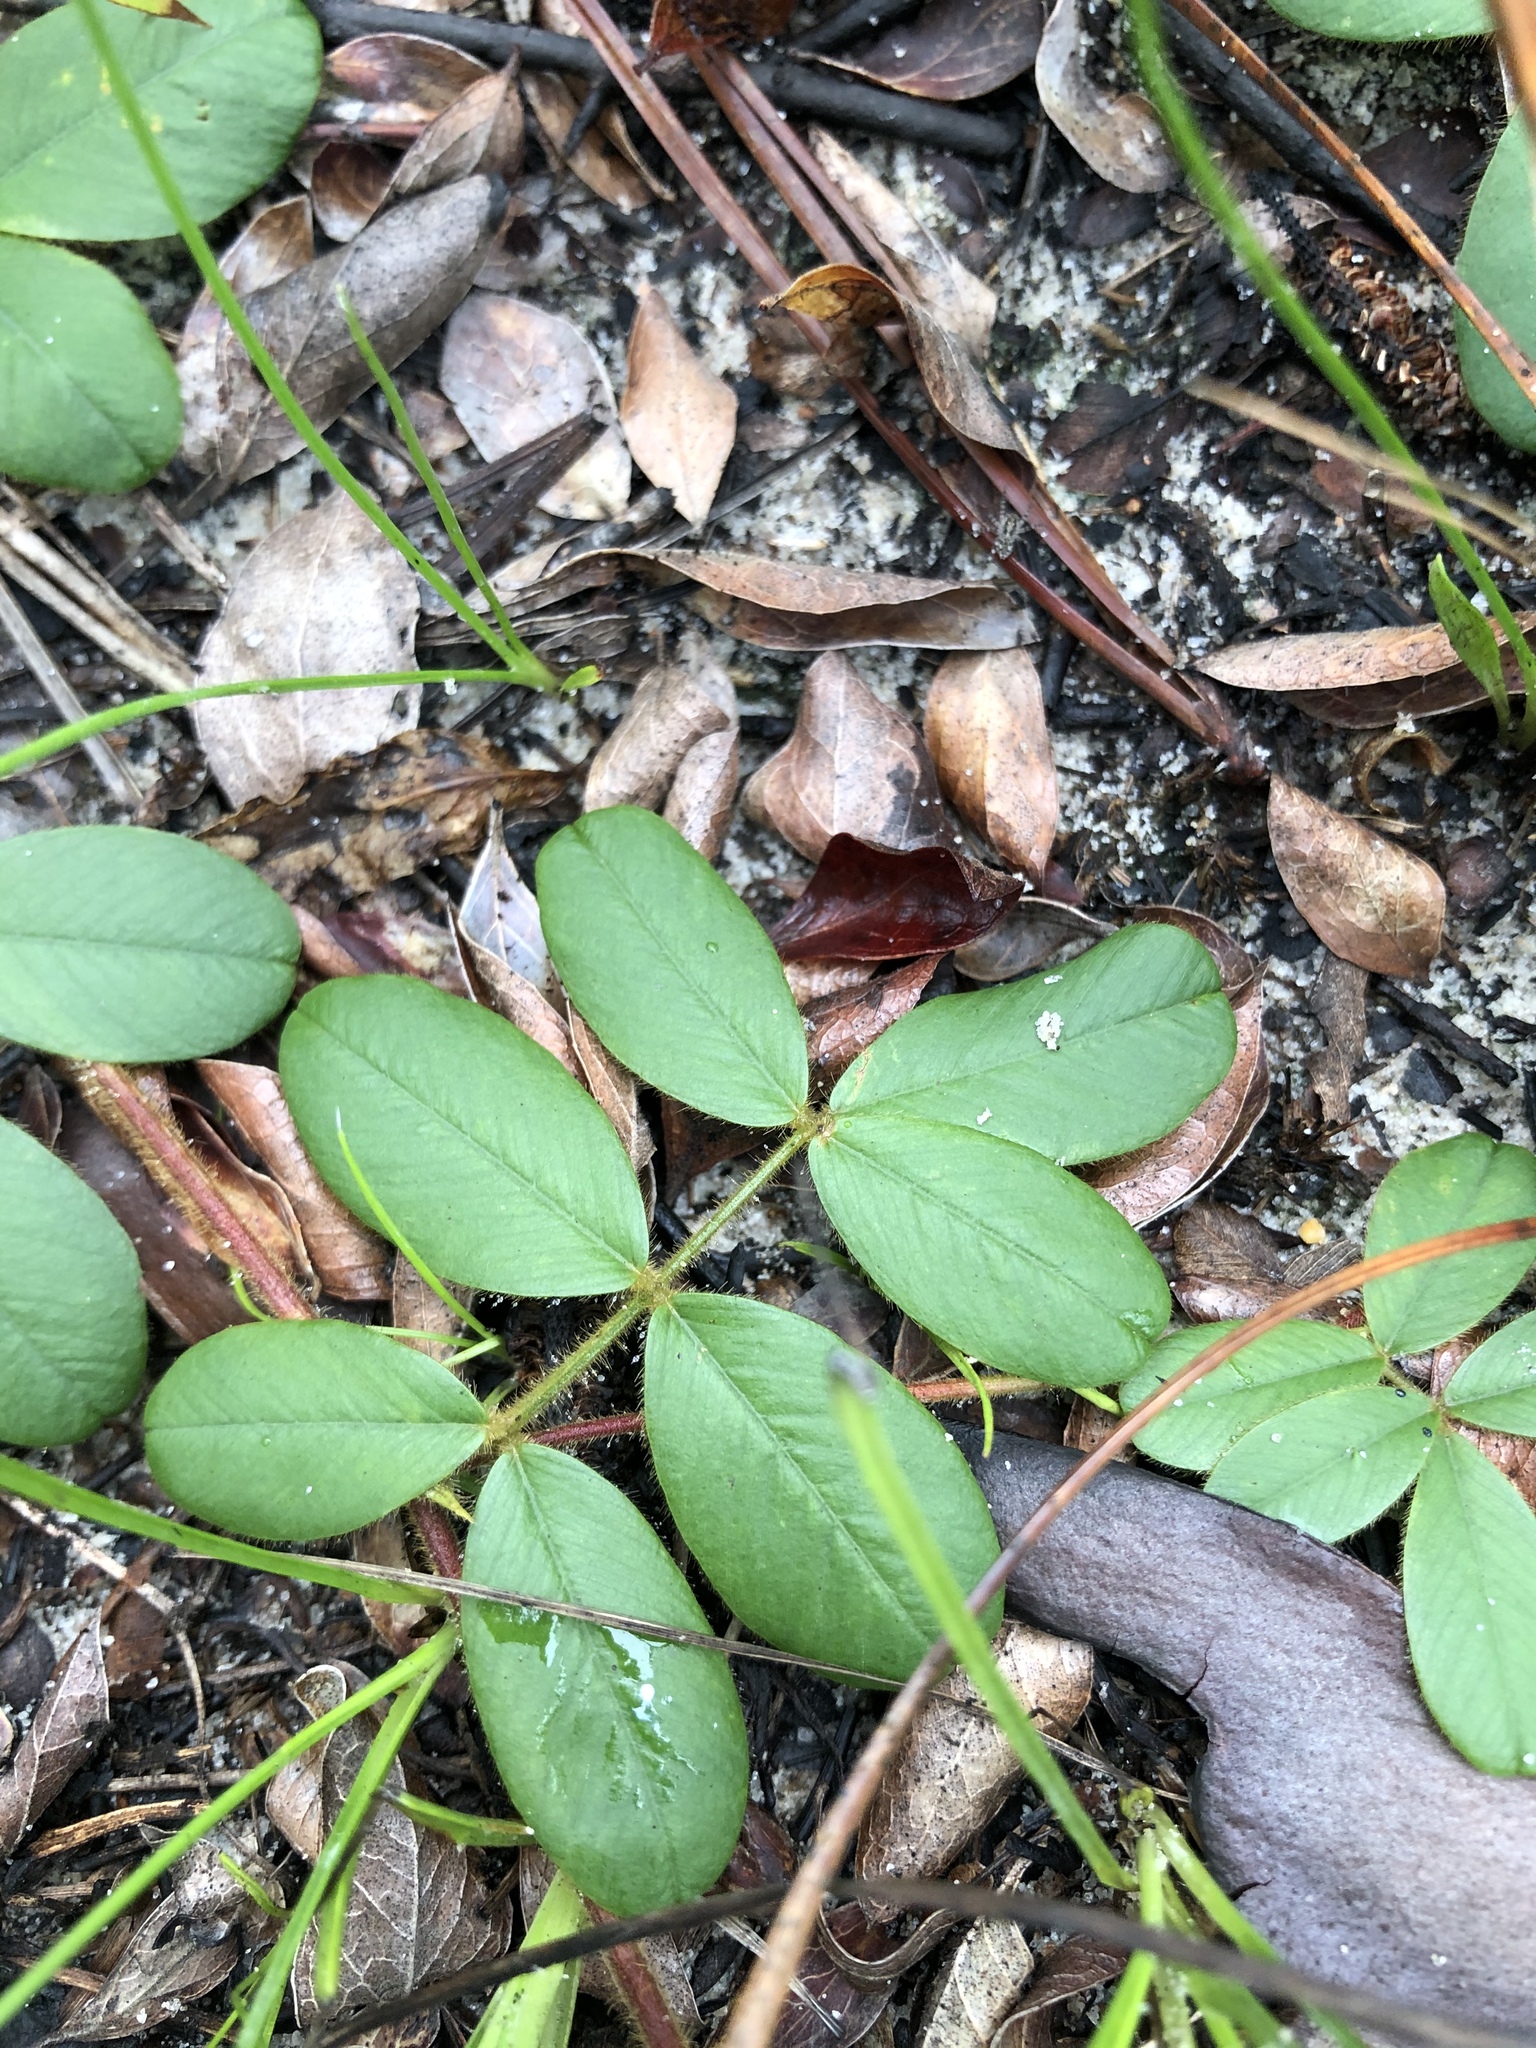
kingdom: Plantae
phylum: Tracheophyta
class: Magnoliopsida
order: Fabales
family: Fabaceae
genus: Tephrosia
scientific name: Tephrosia chrysophylla
